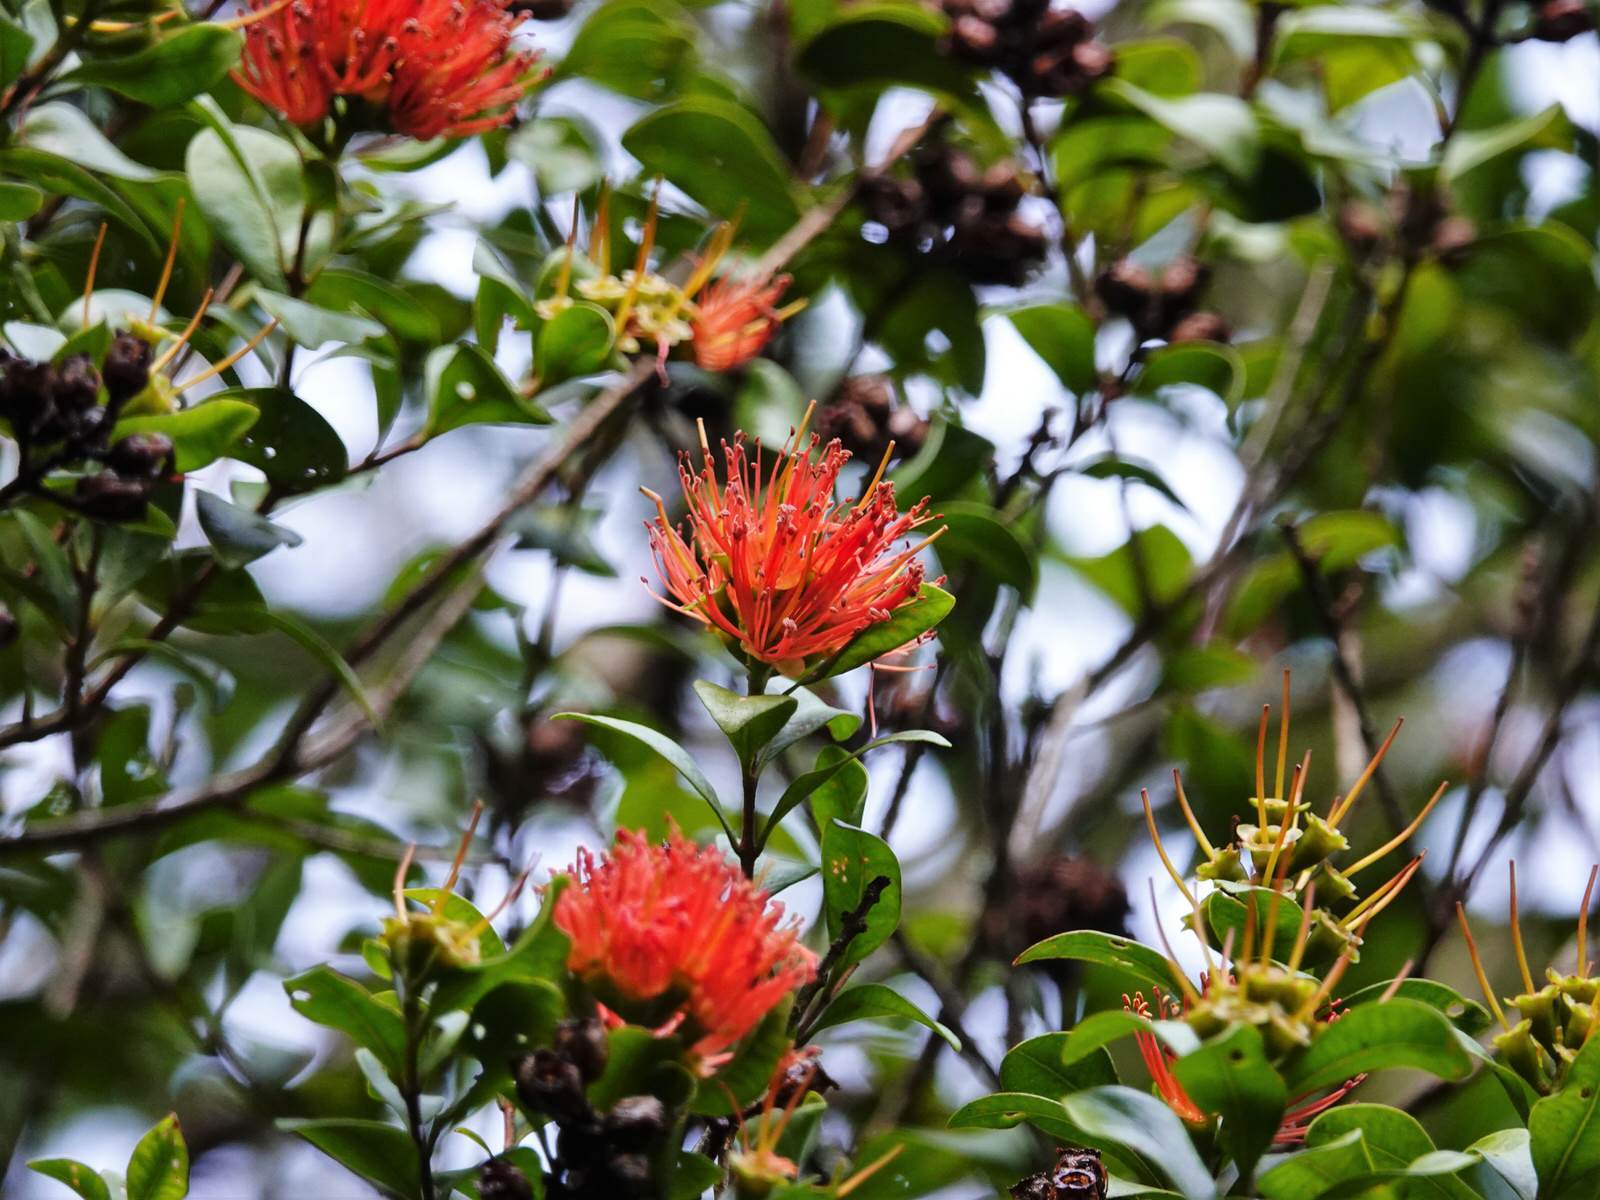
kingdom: Plantae
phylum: Tracheophyta
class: Magnoliopsida
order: Myrtales
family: Myrtaceae
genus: Metrosideros
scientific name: Metrosideros fulgens
